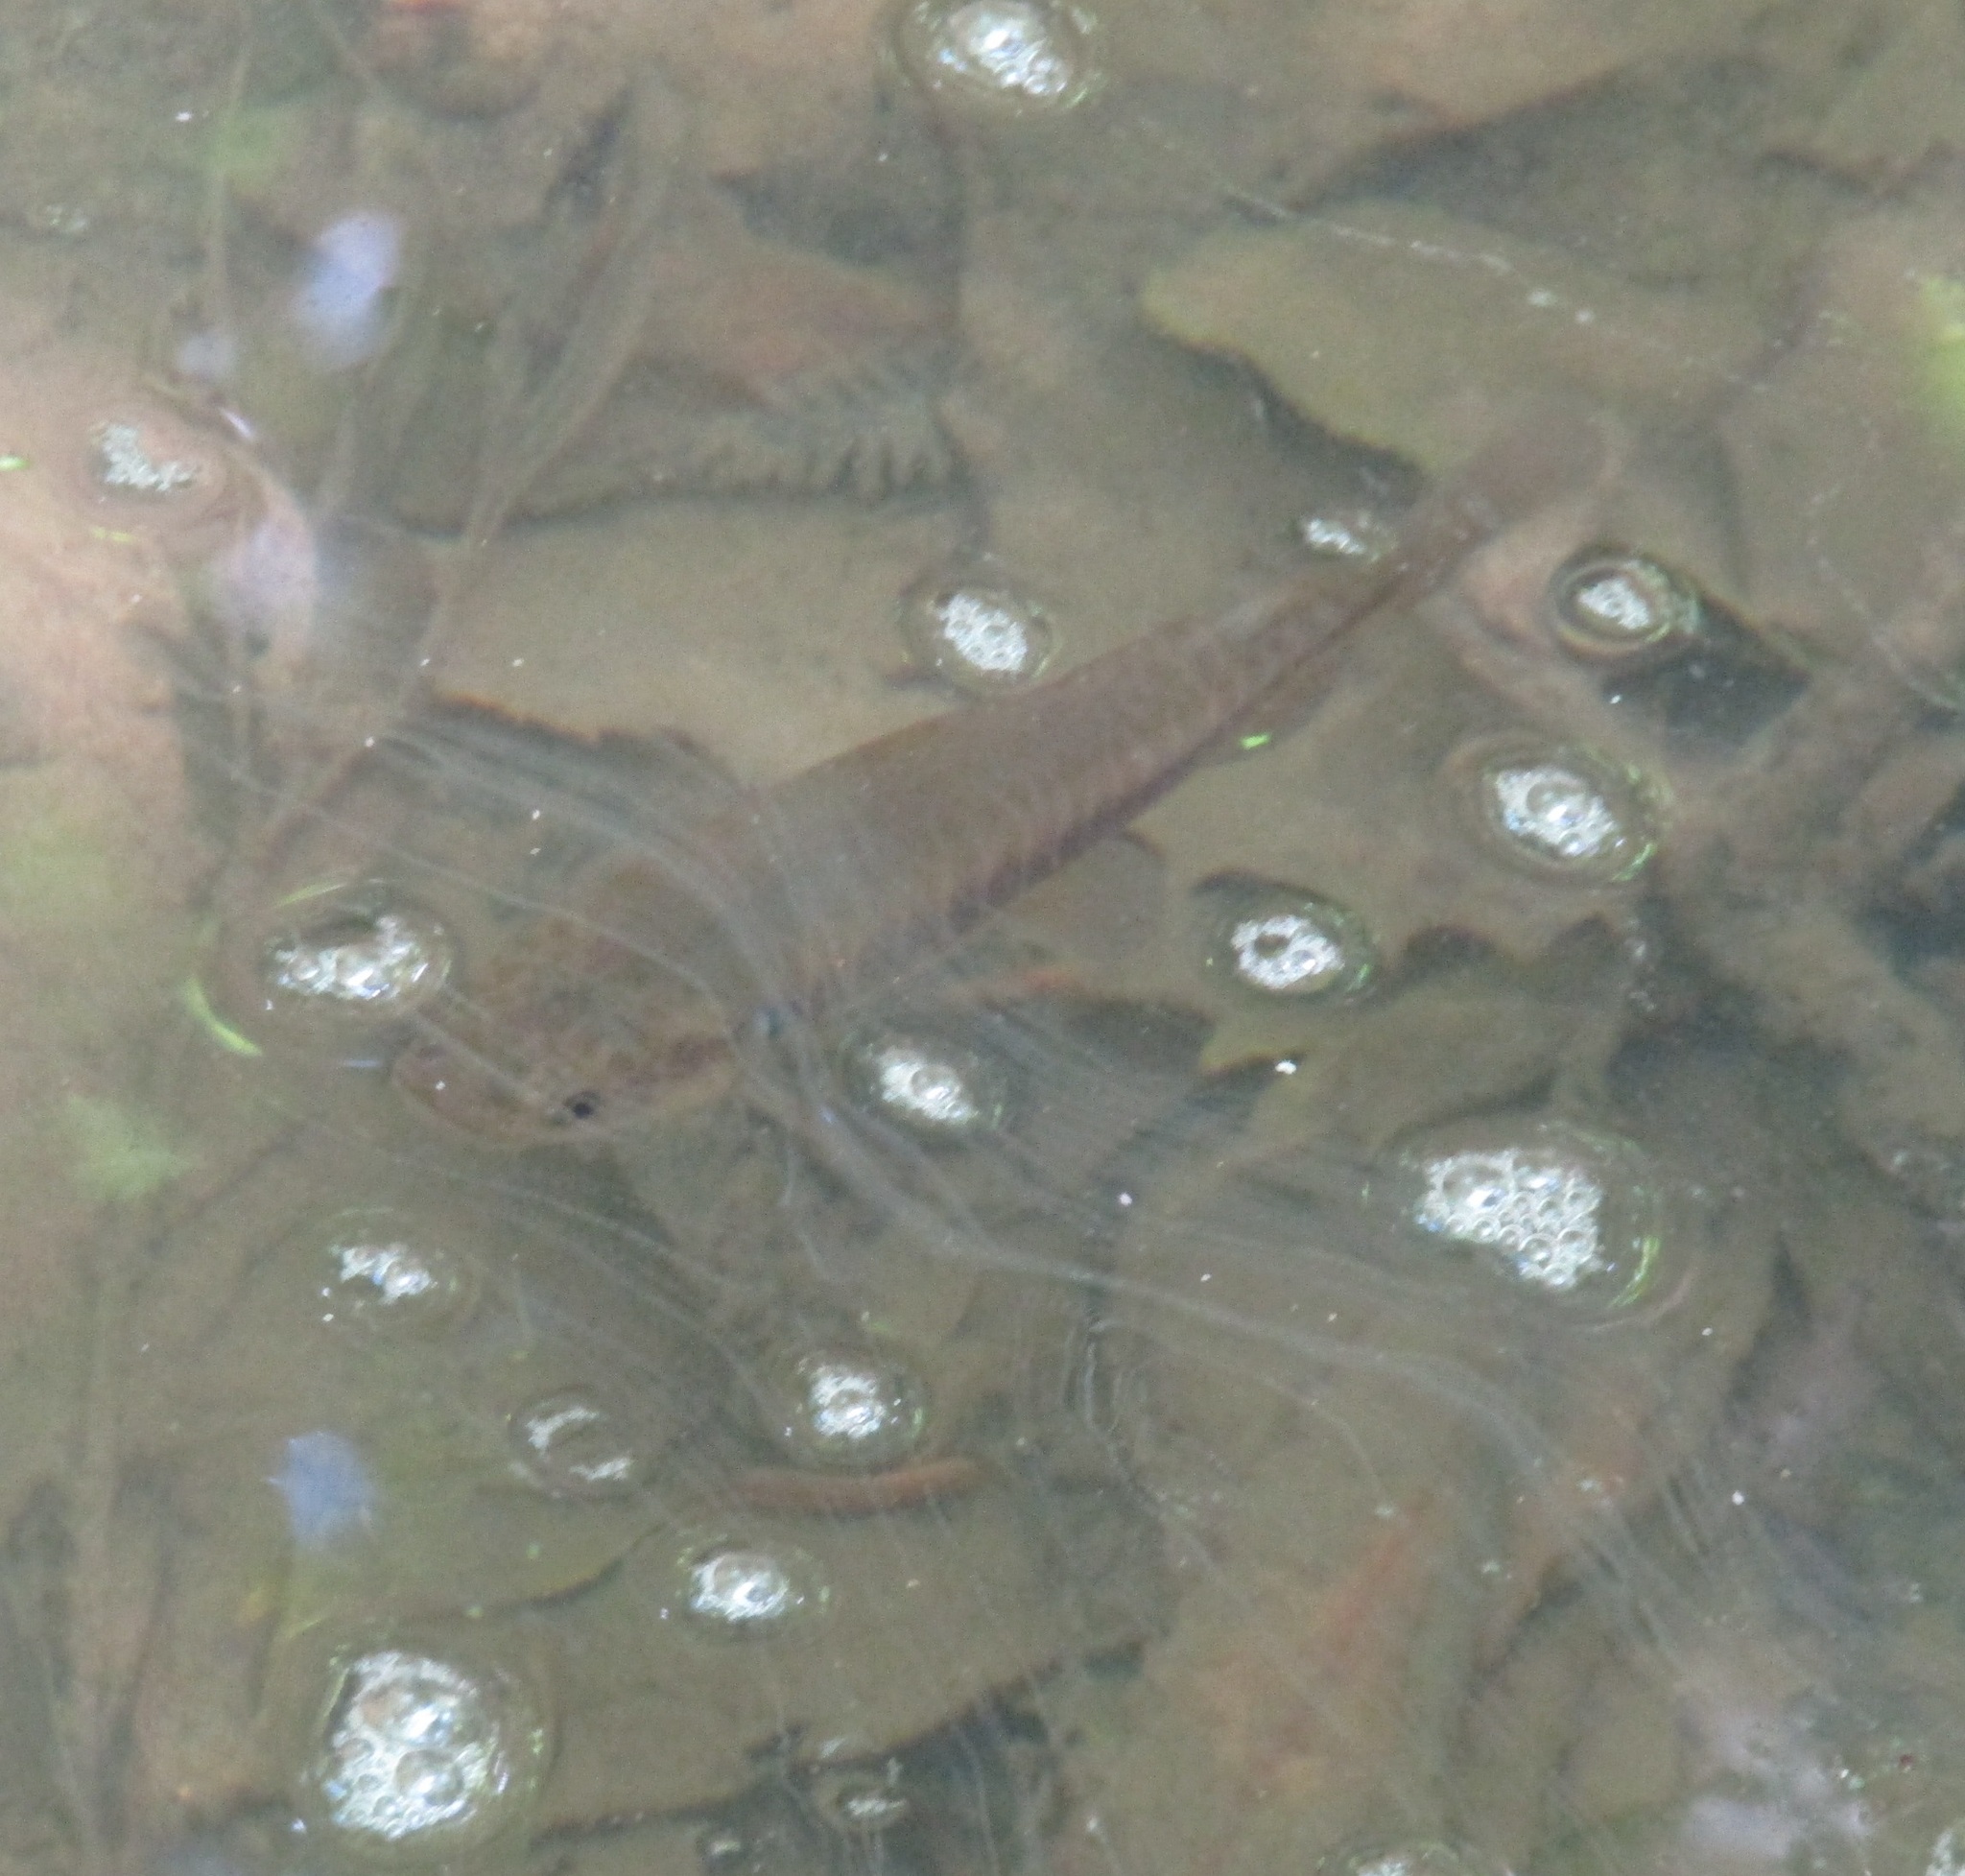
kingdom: Animalia
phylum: Chordata
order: Osmeriformes
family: Galaxiidae
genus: Galaxias
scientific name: Galaxias fasciatus
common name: Banded kokopu
